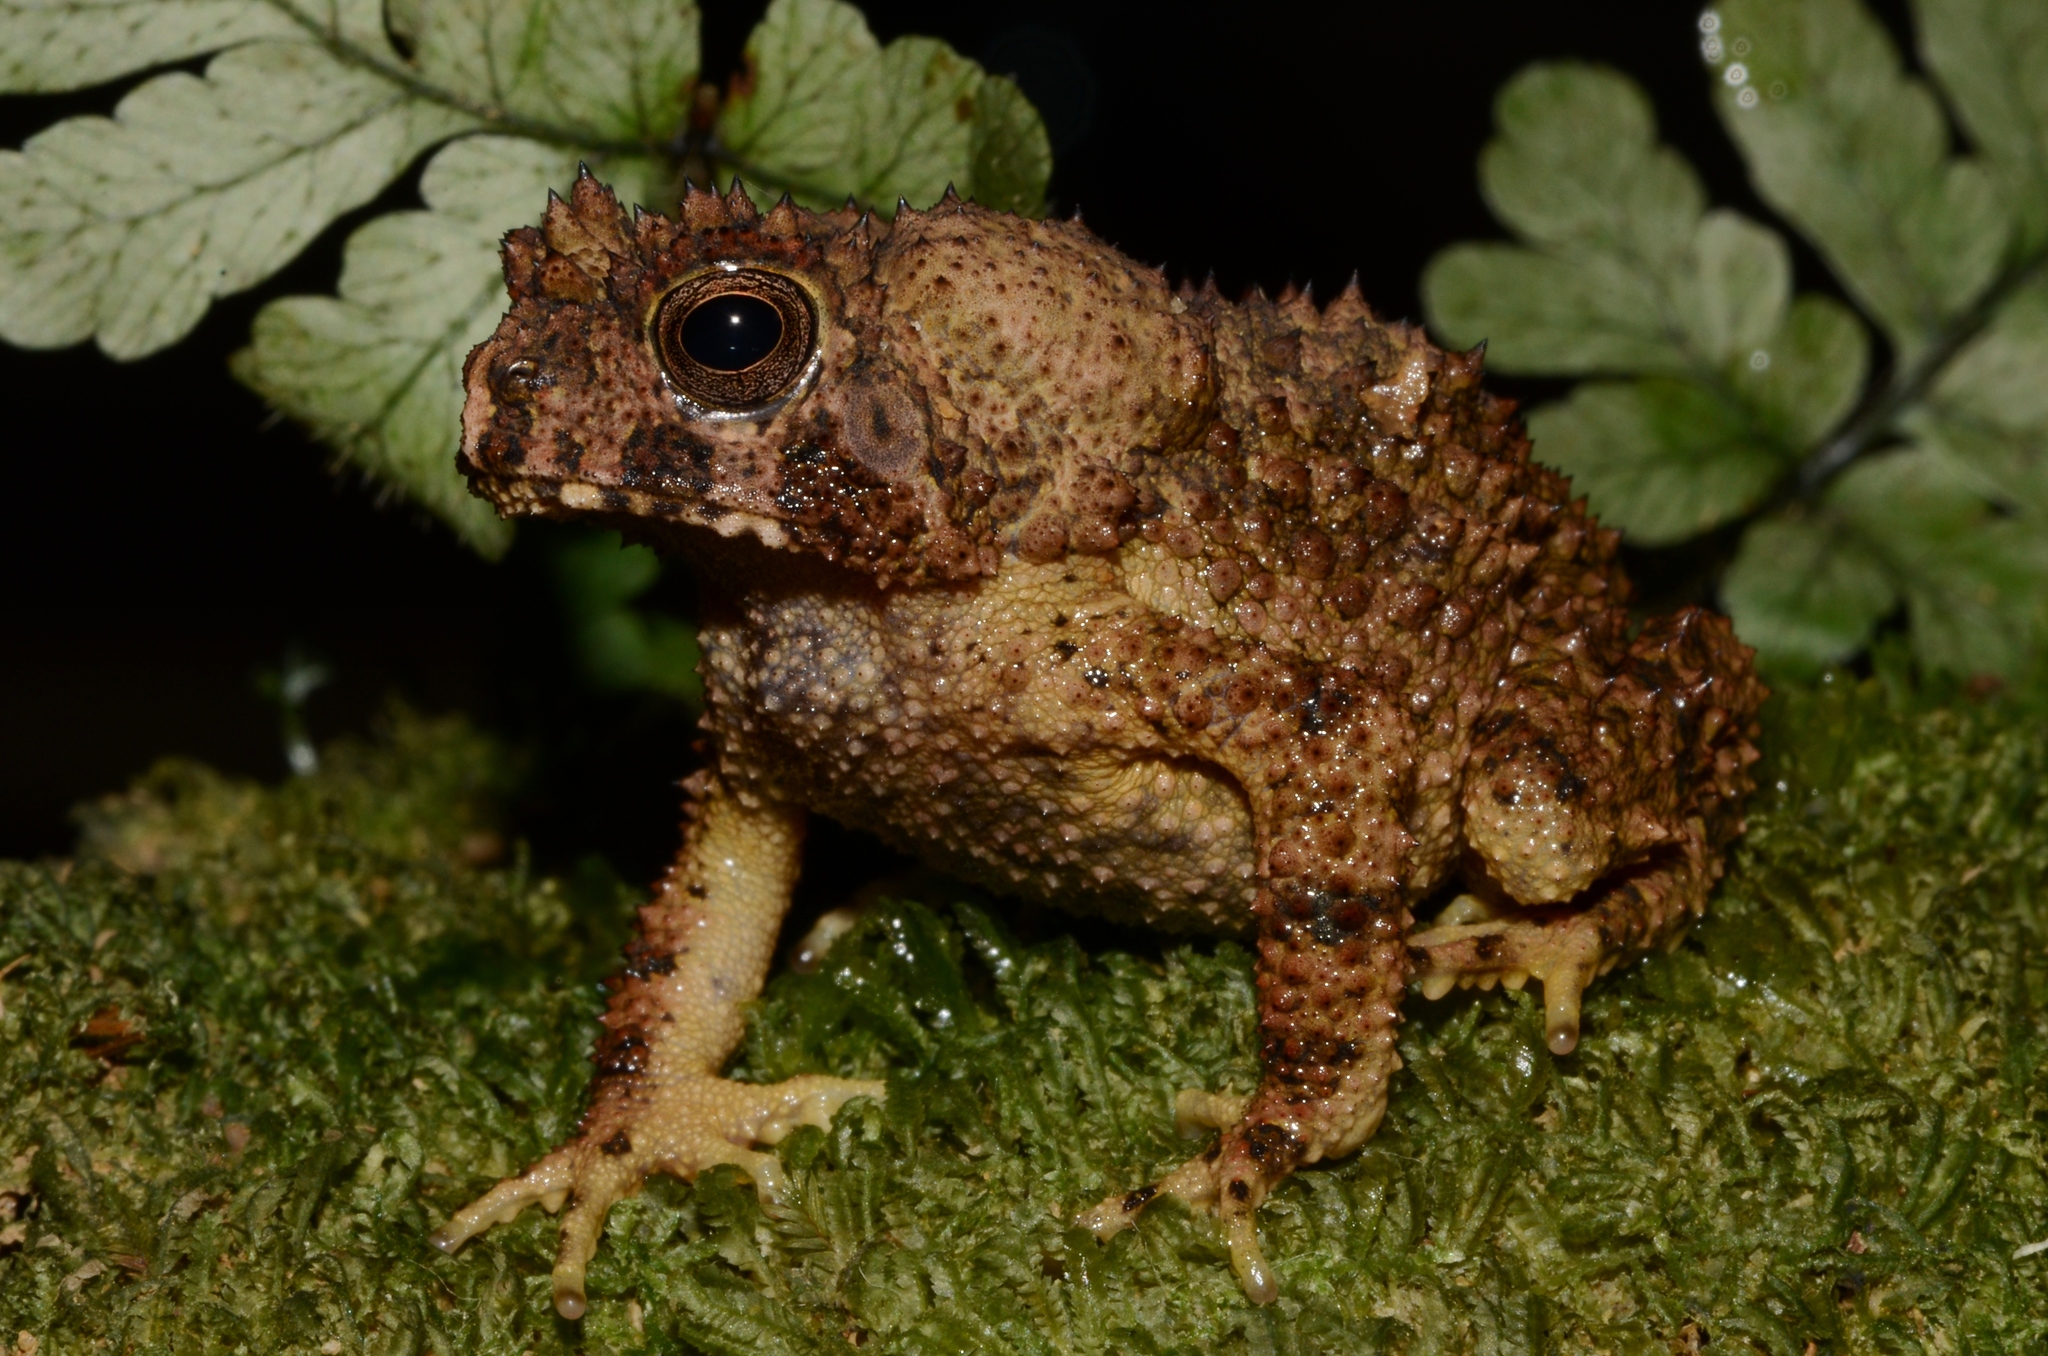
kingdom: Animalia
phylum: Chordata
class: Amphibia
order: Anura
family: Bufonidae
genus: Sclerophrys
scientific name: Sclerophrys tuberosa
